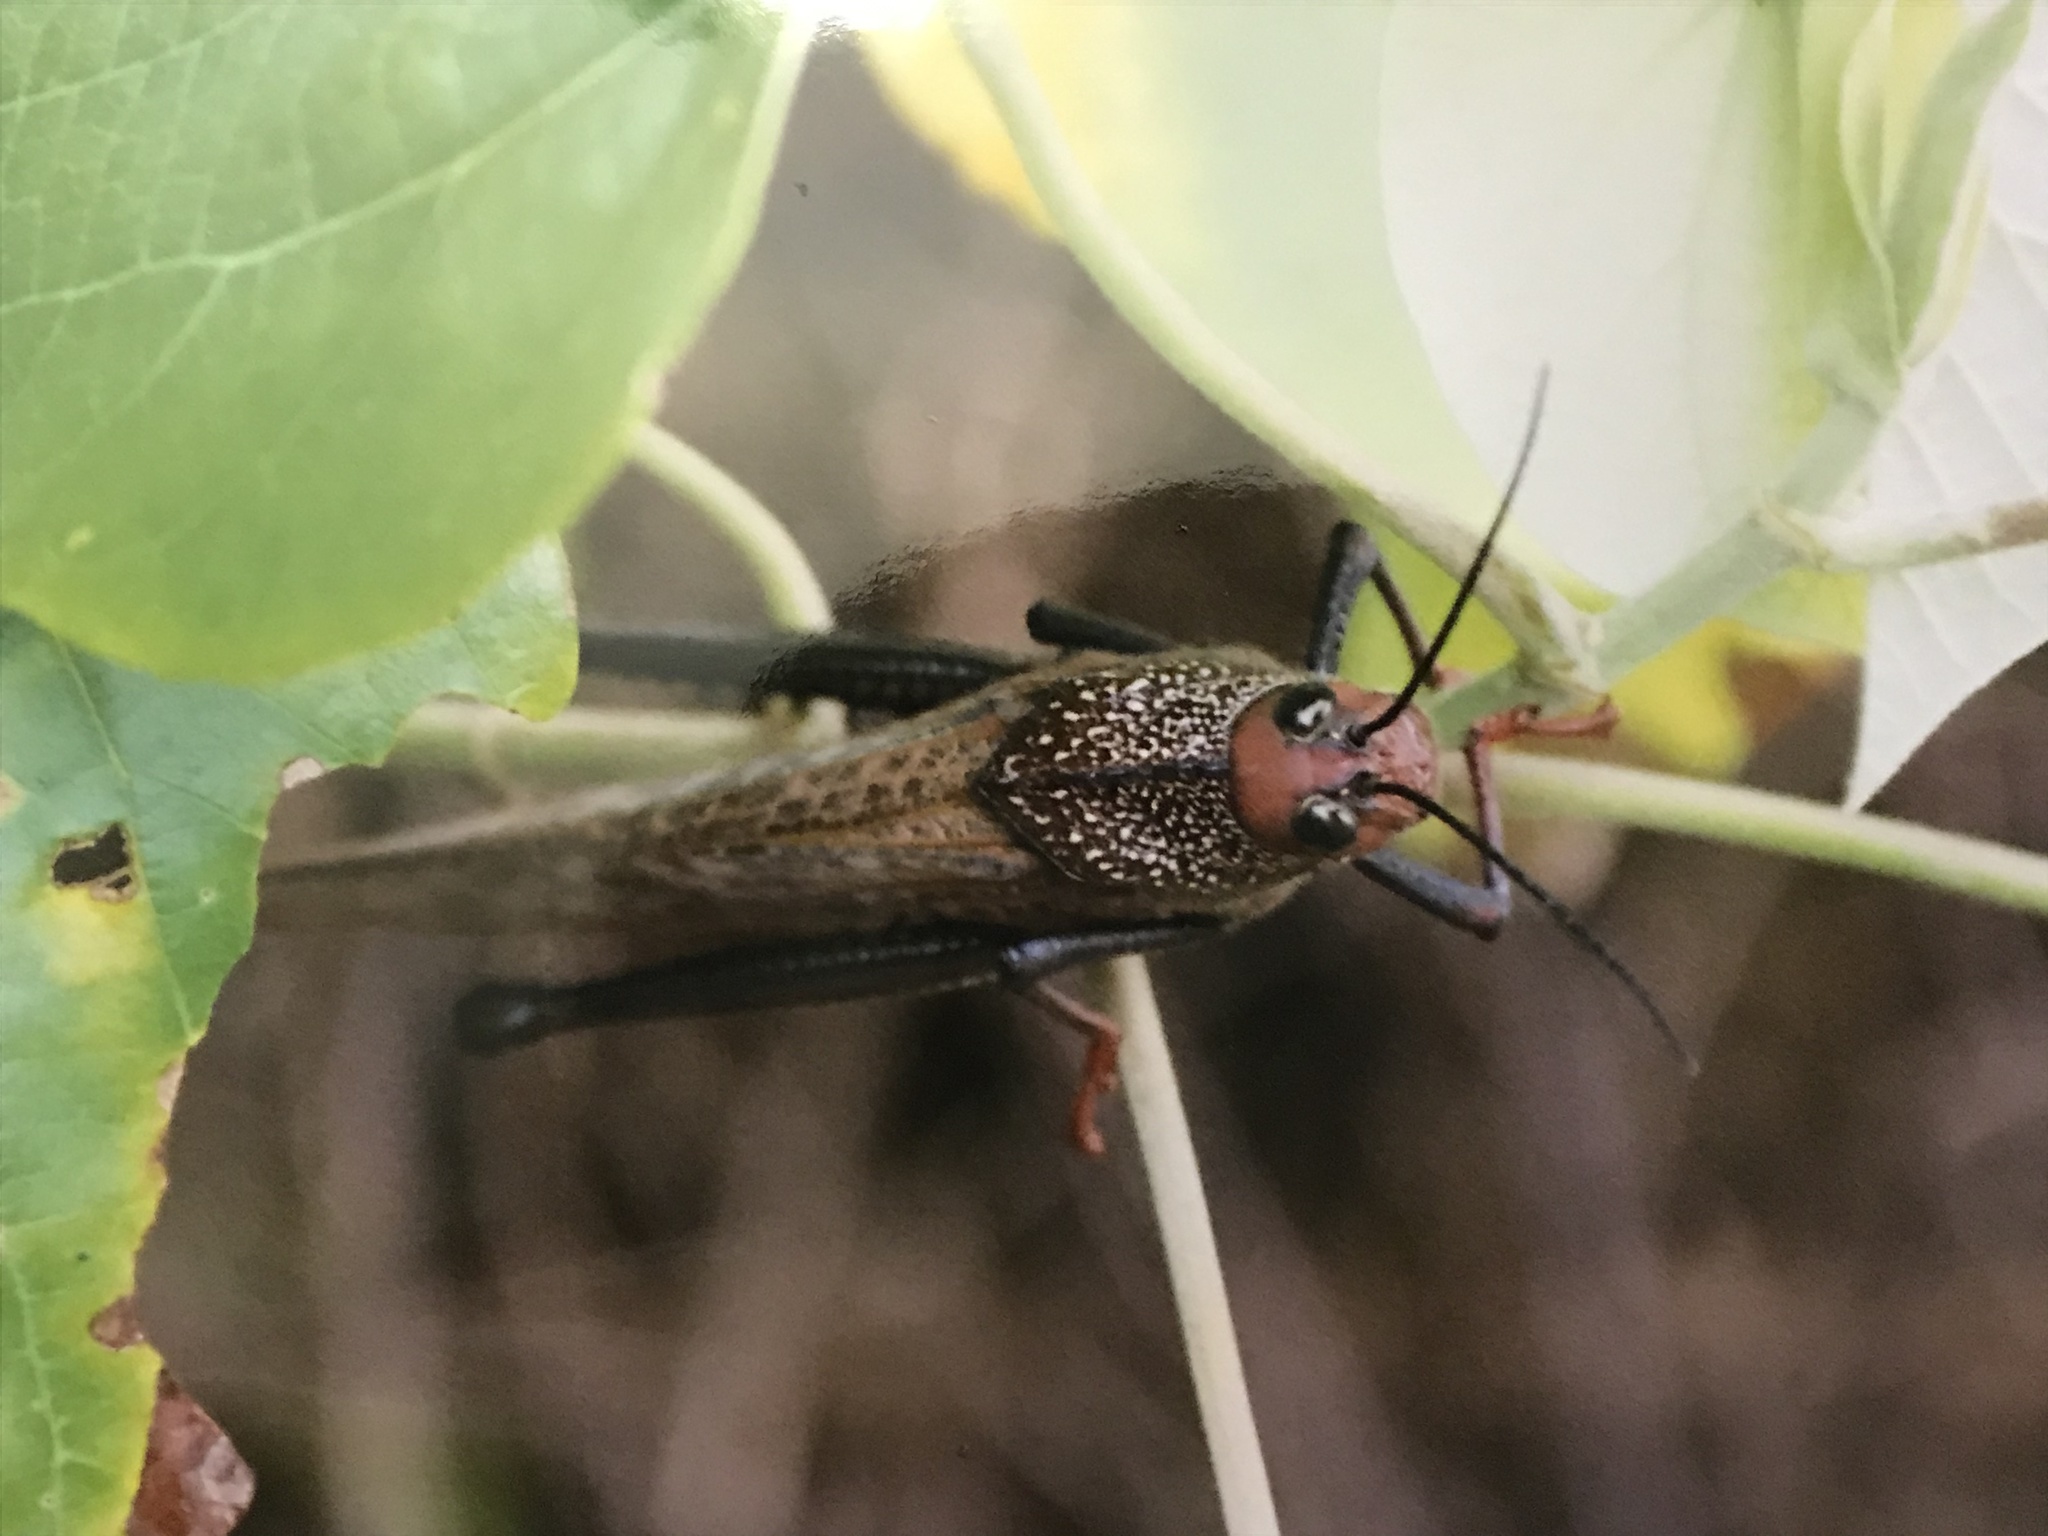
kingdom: Animalia
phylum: Arthropoda
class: Insecta
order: Orthoptera
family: Romaleidae
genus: Tropidacris
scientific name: Tropidacris cristata
